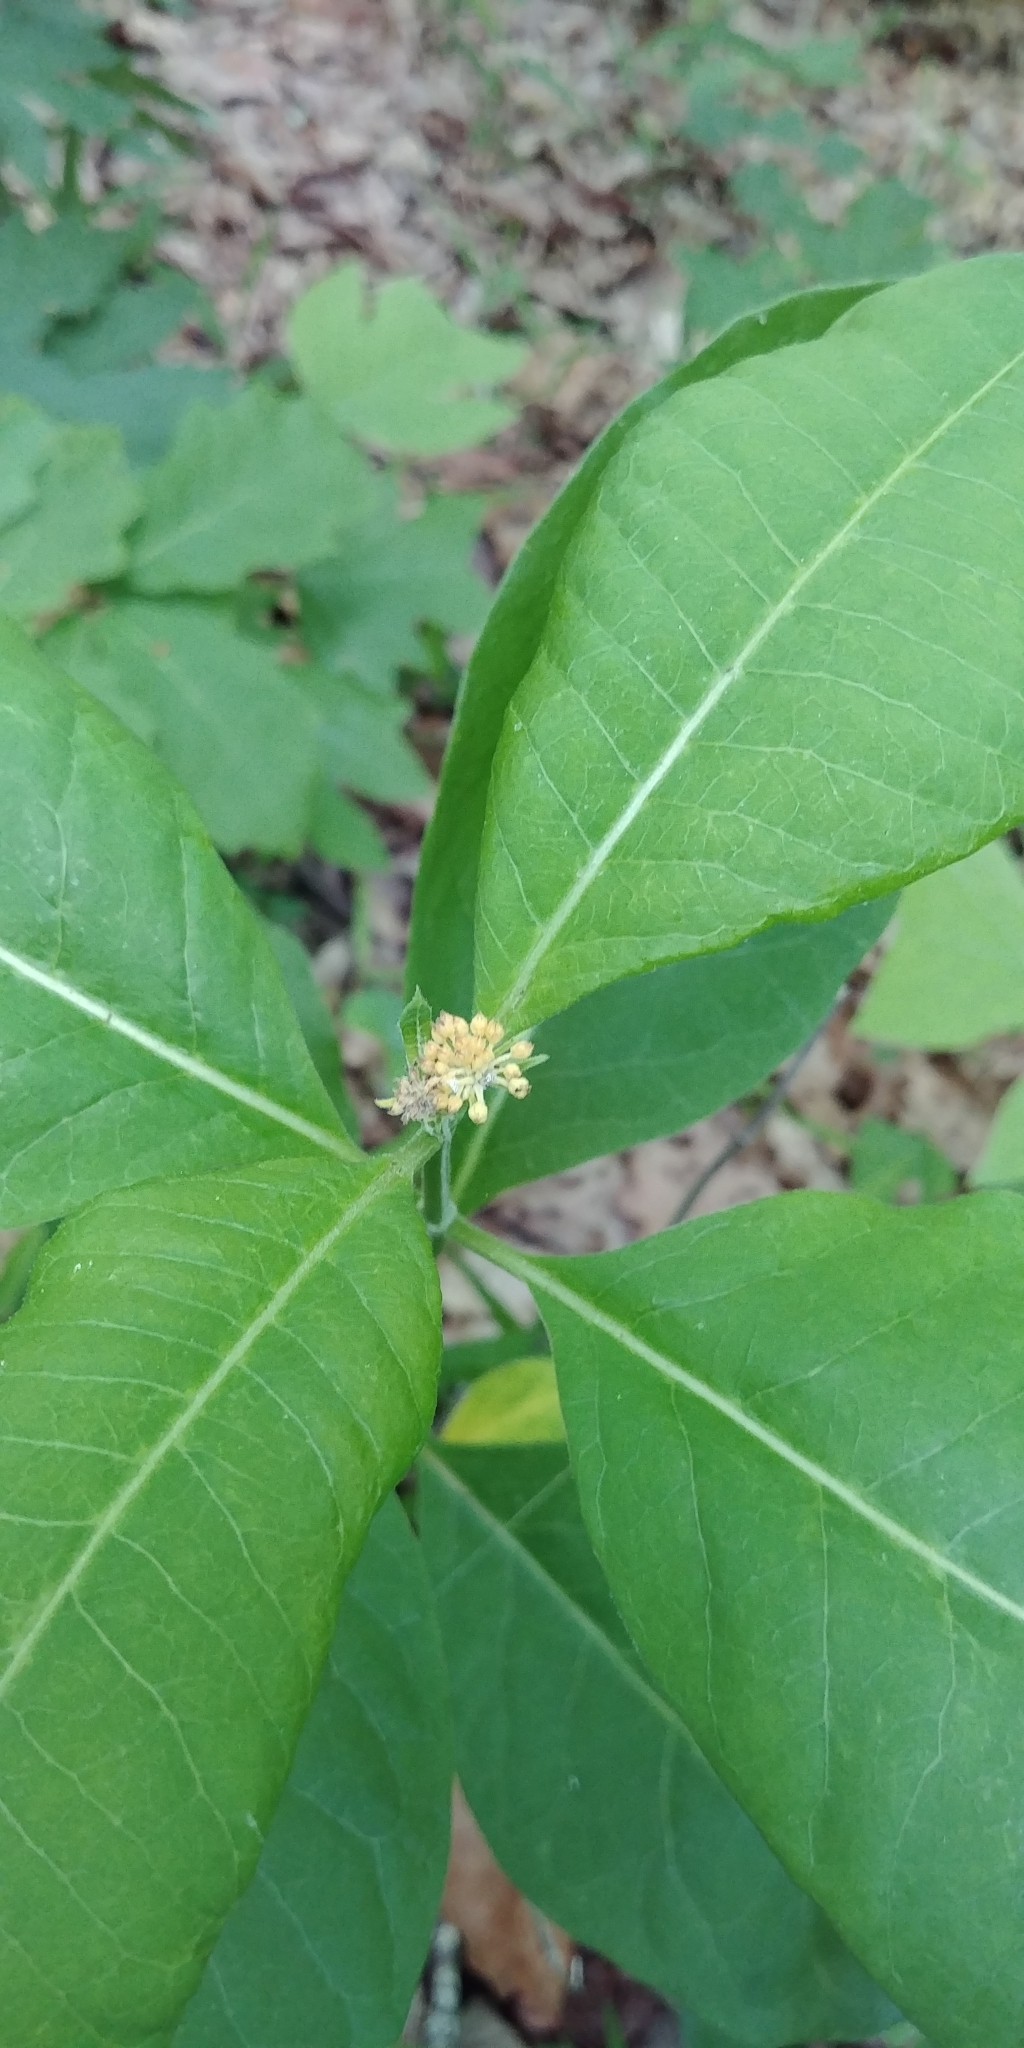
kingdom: Plantae
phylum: Tracheophyta
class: Magnoliopsida
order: Gentianales
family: Apocynaceae
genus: Asclepias
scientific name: Asclepias variegata
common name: Variegated milkweed
